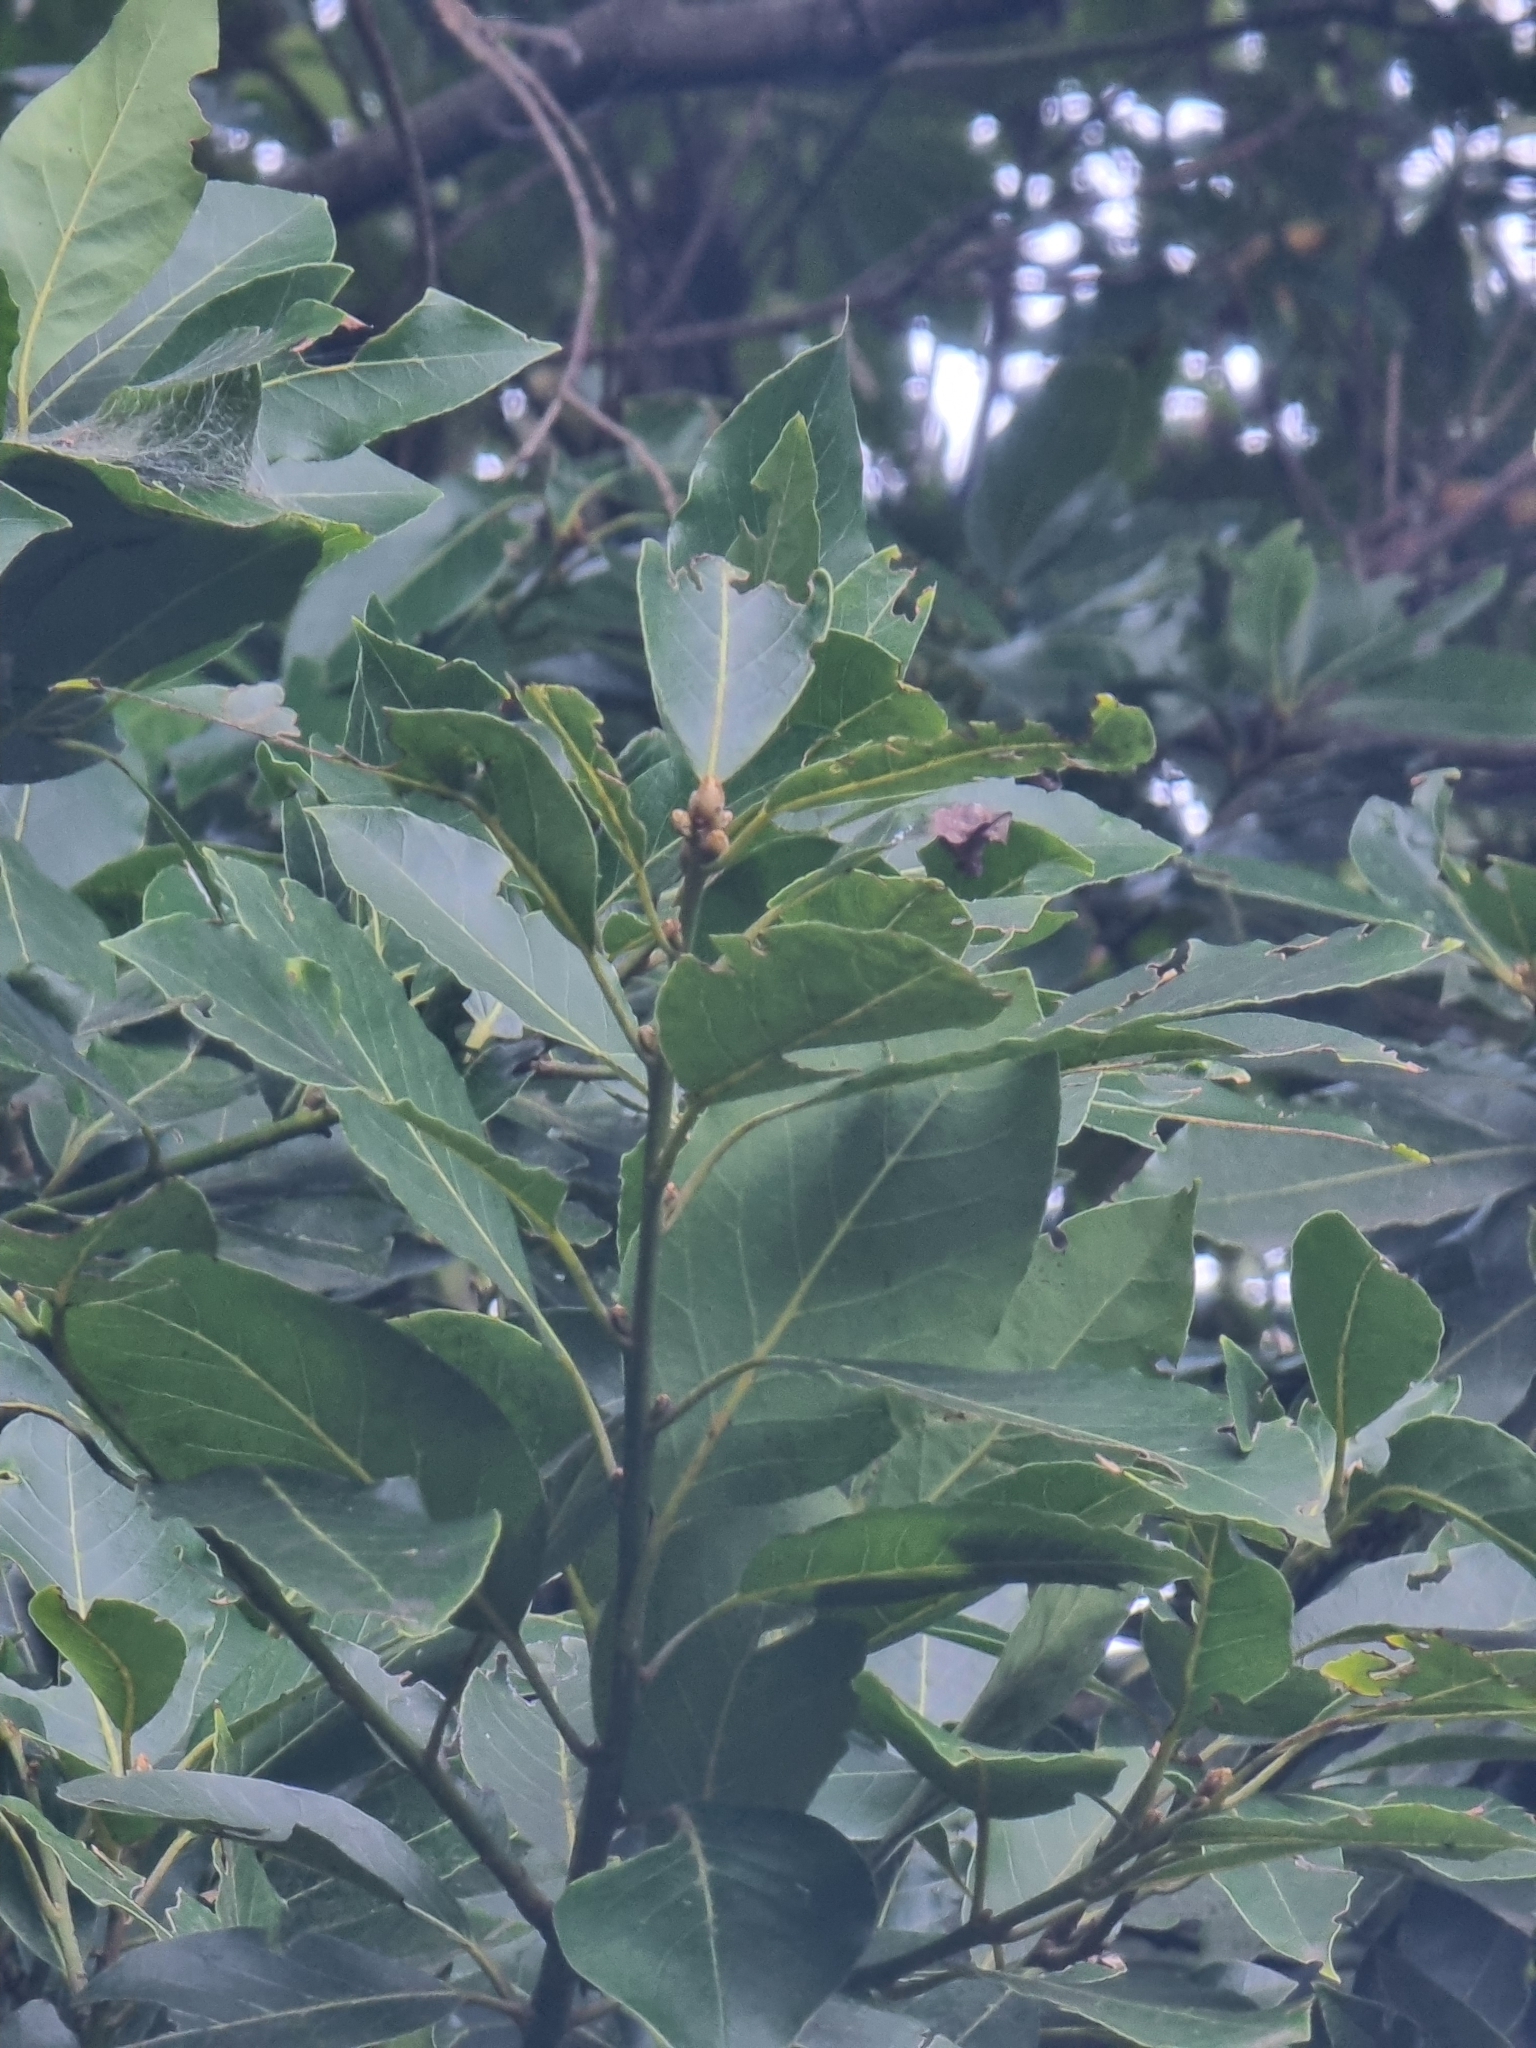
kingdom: Plantae
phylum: Tracheophyta
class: Magnoliopsida
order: Laurales
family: Lauraceae
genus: Laurus
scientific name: Laurus novocanariensis
